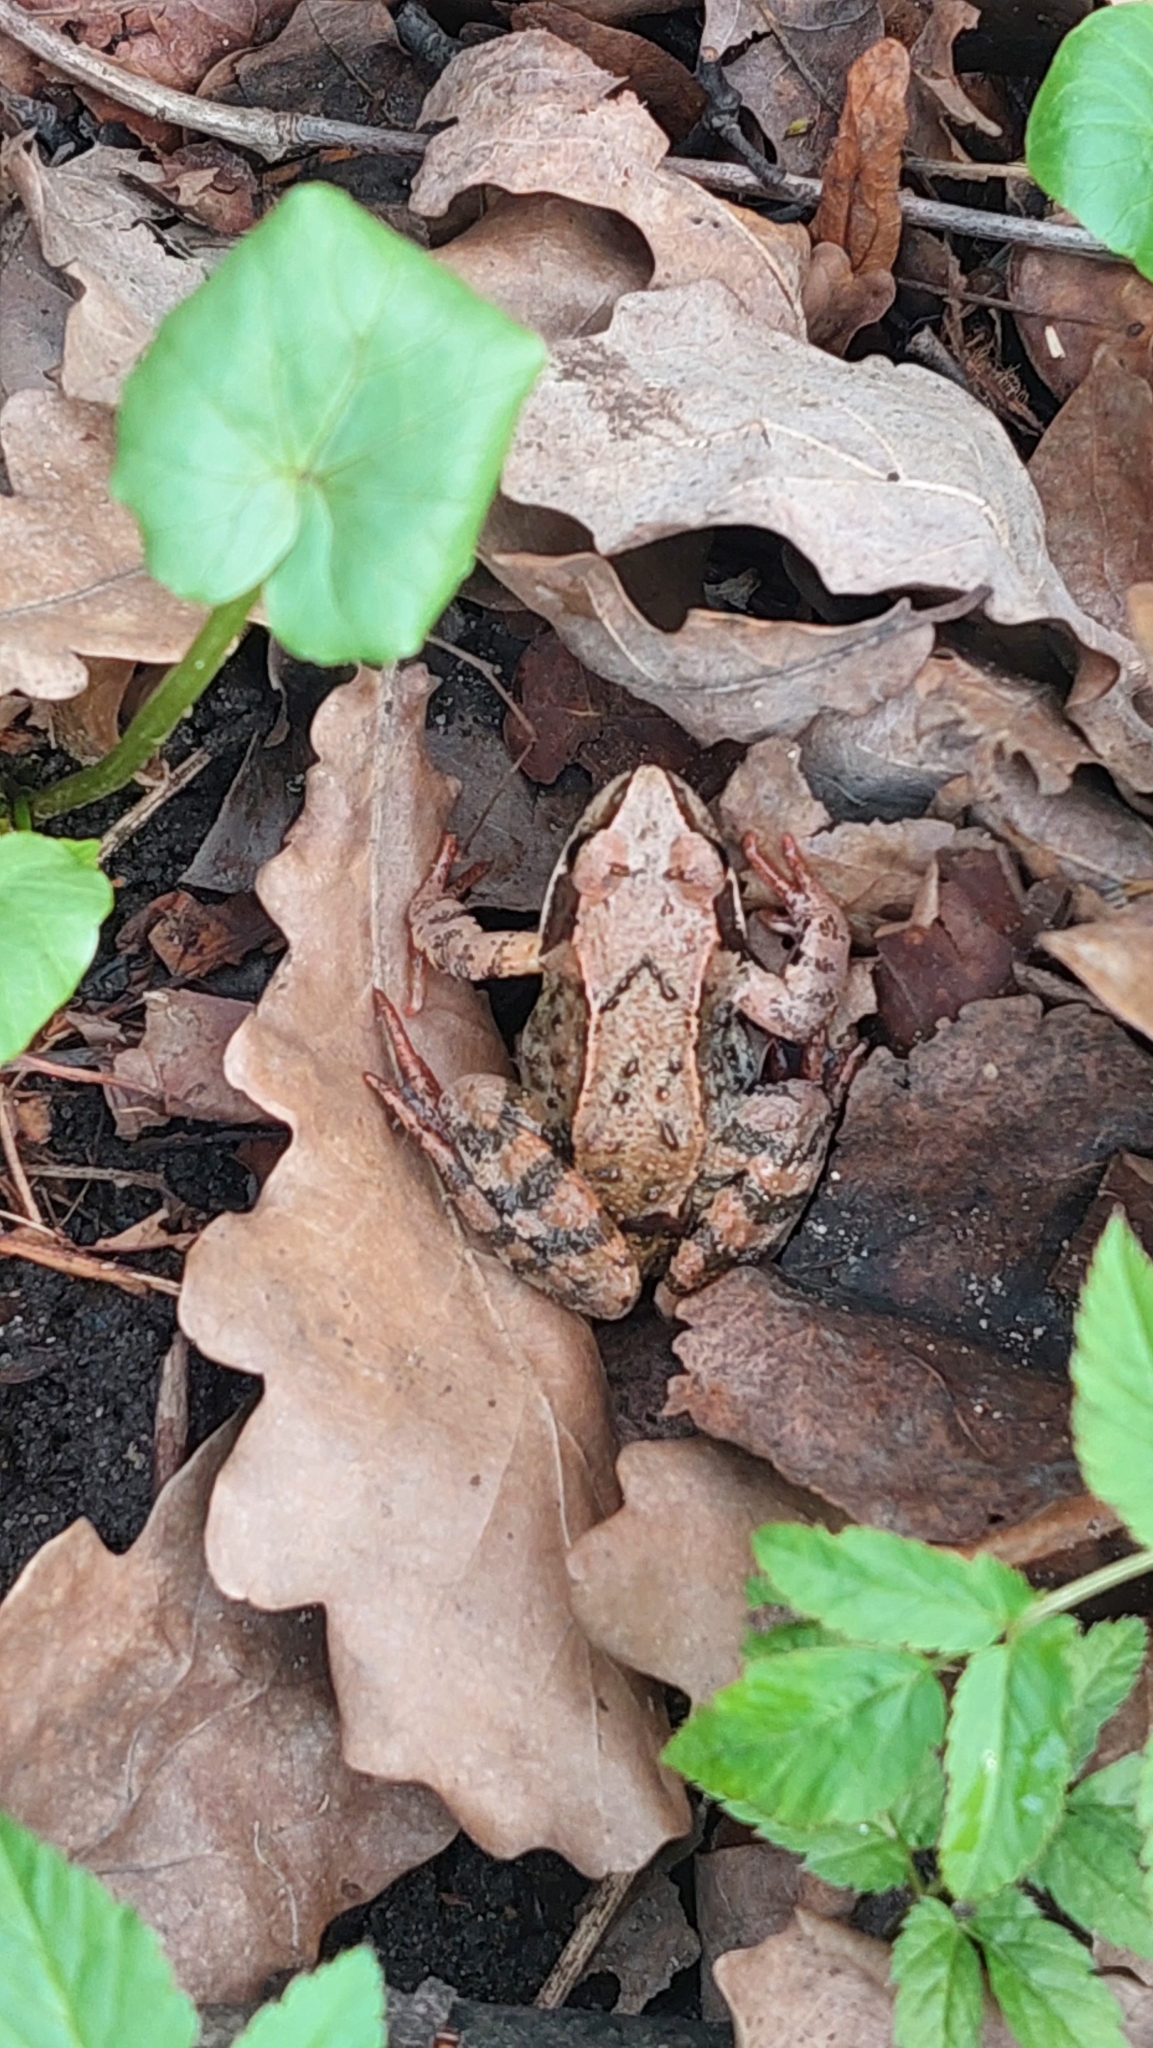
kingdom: Animalia
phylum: Chordata
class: Amphibia
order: Anura
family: Ranidae
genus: Rana
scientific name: Rana temporaria
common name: Common frog
